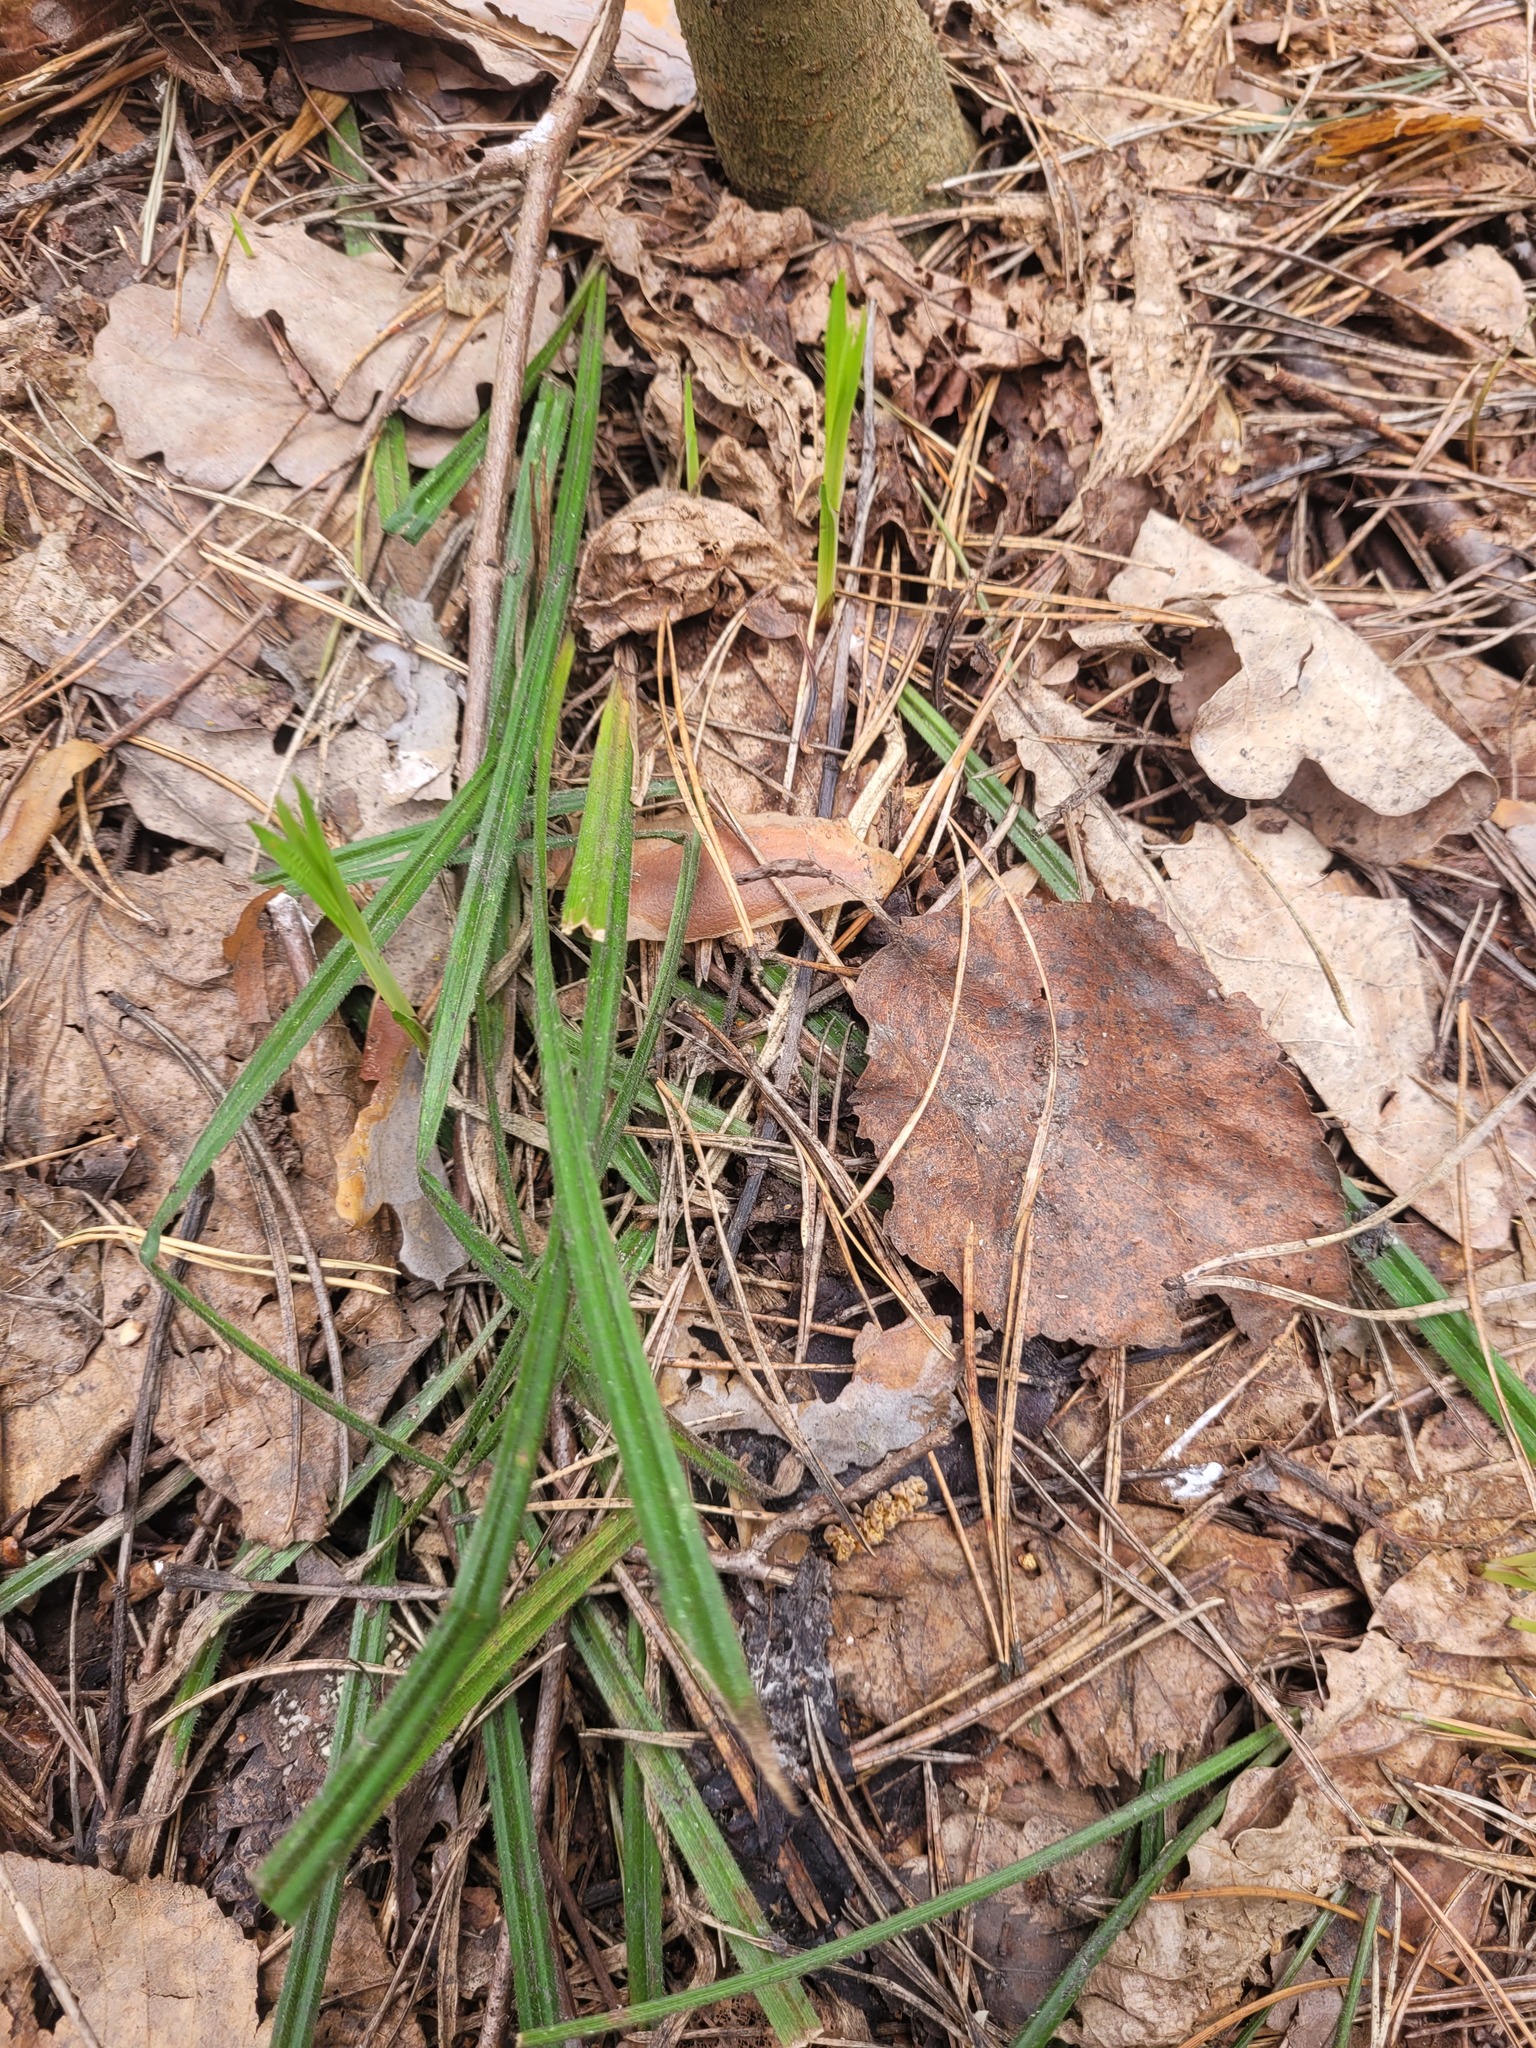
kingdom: Plantae
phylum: Tracheophyta
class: Liliopsida
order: Poales
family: Cyperaceae
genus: Carex
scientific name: Carex pilosa
